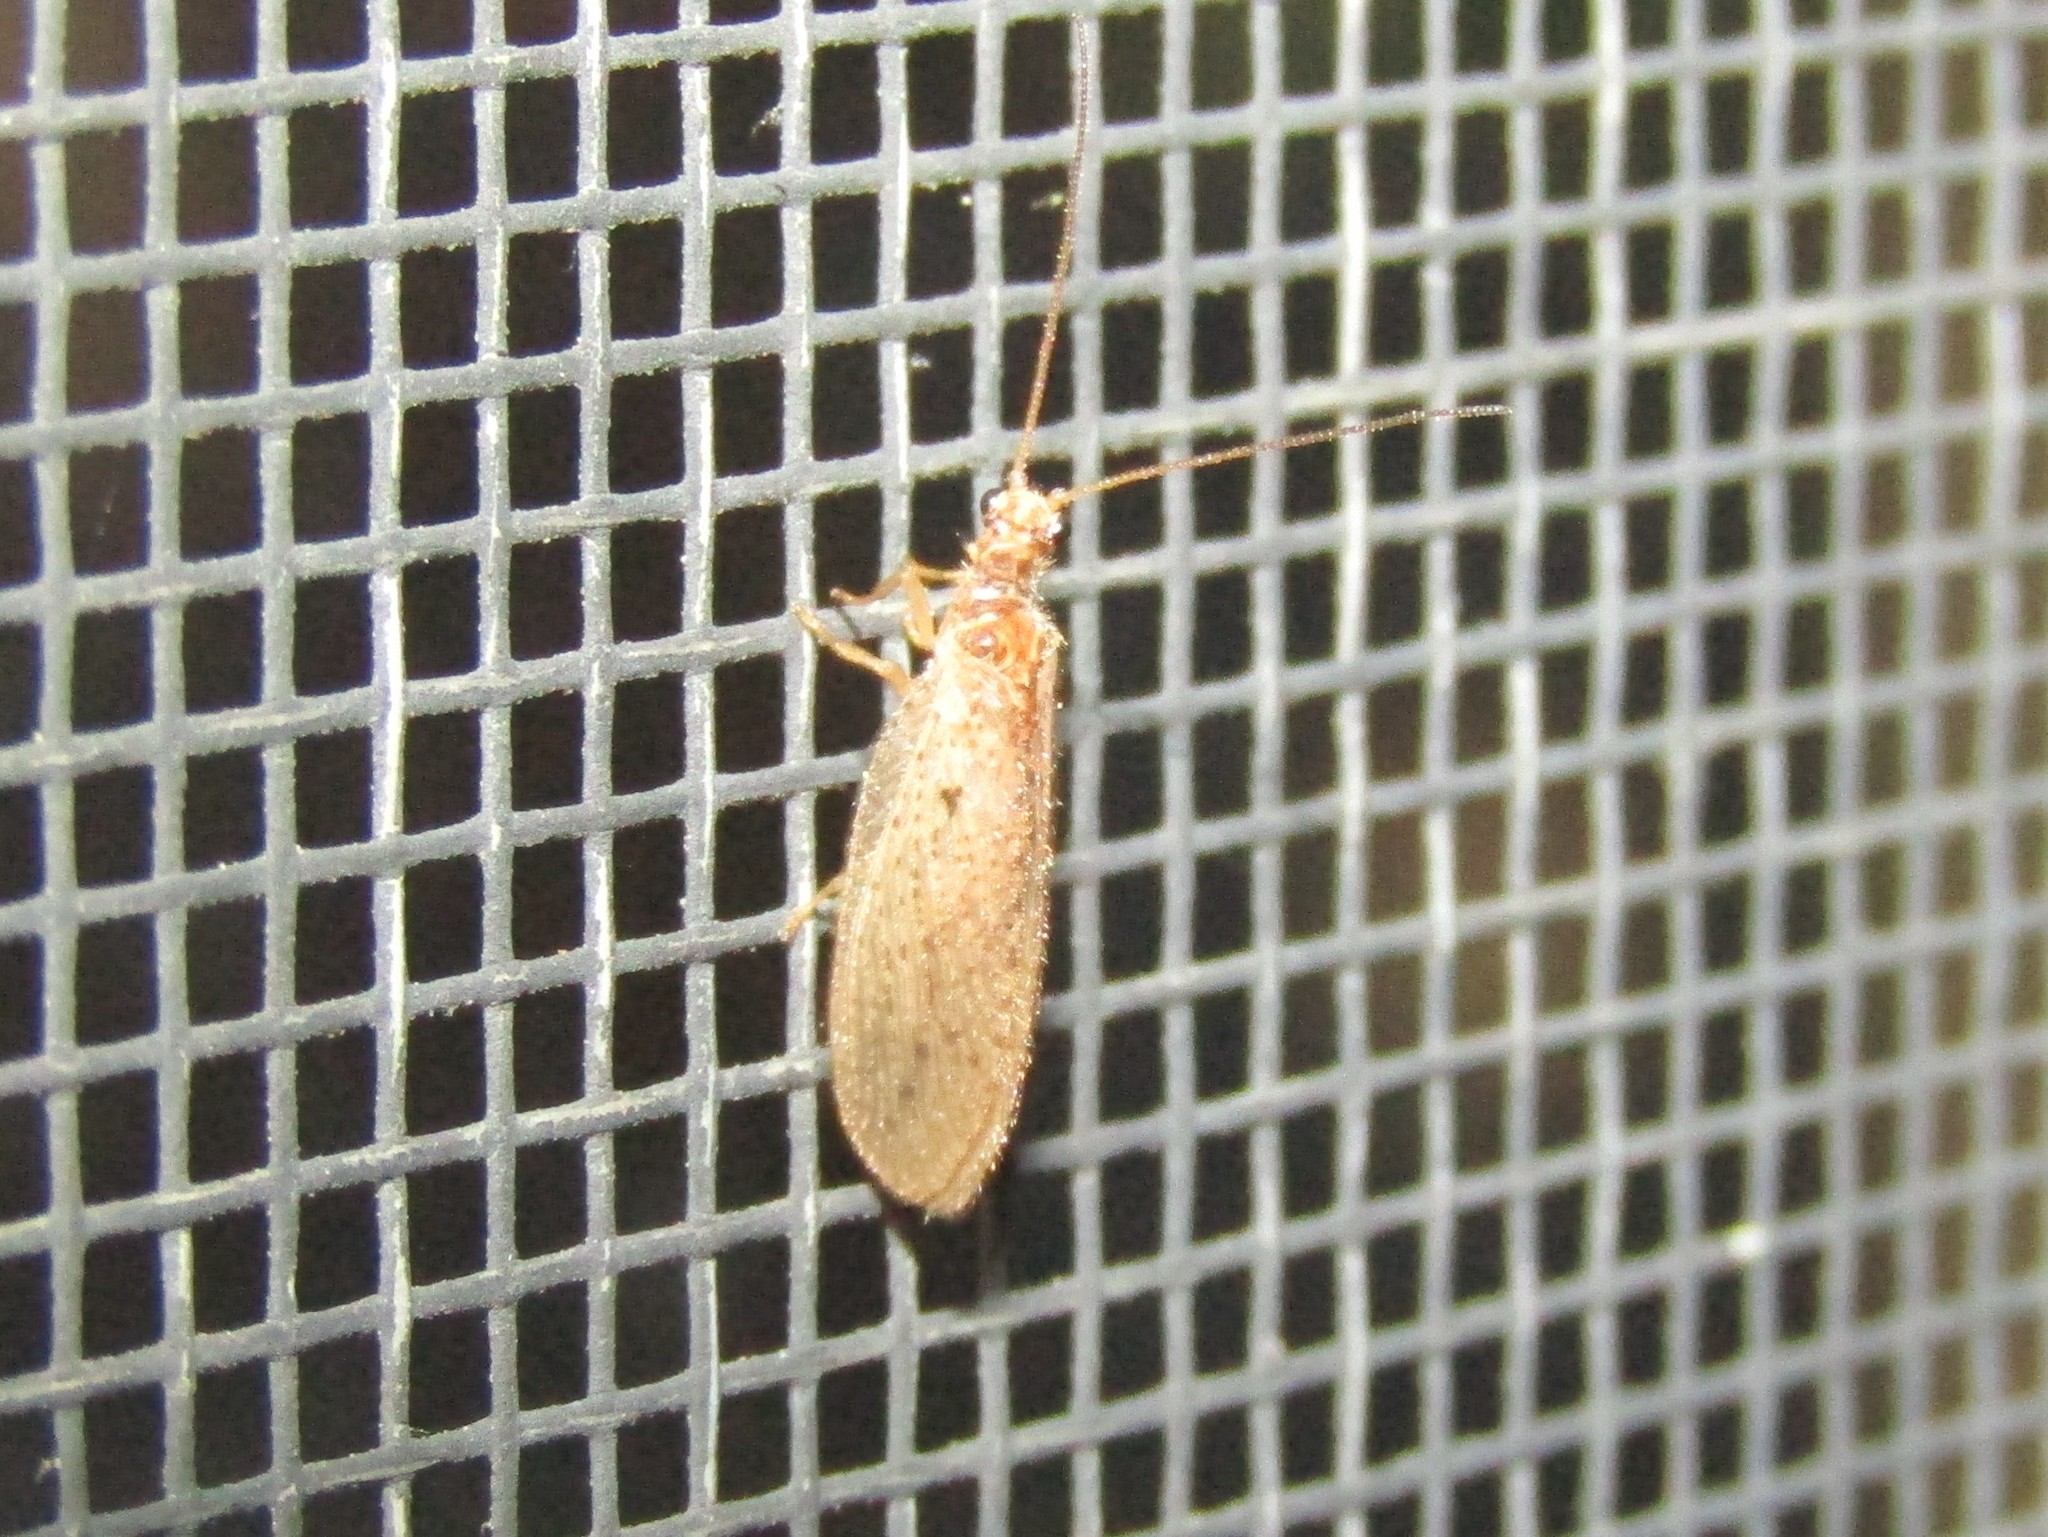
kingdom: Animalia
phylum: Arthropoda
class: Insecta
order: Neuroptera
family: Hemerobiidae
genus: Micromus
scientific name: Micromus subanticus
